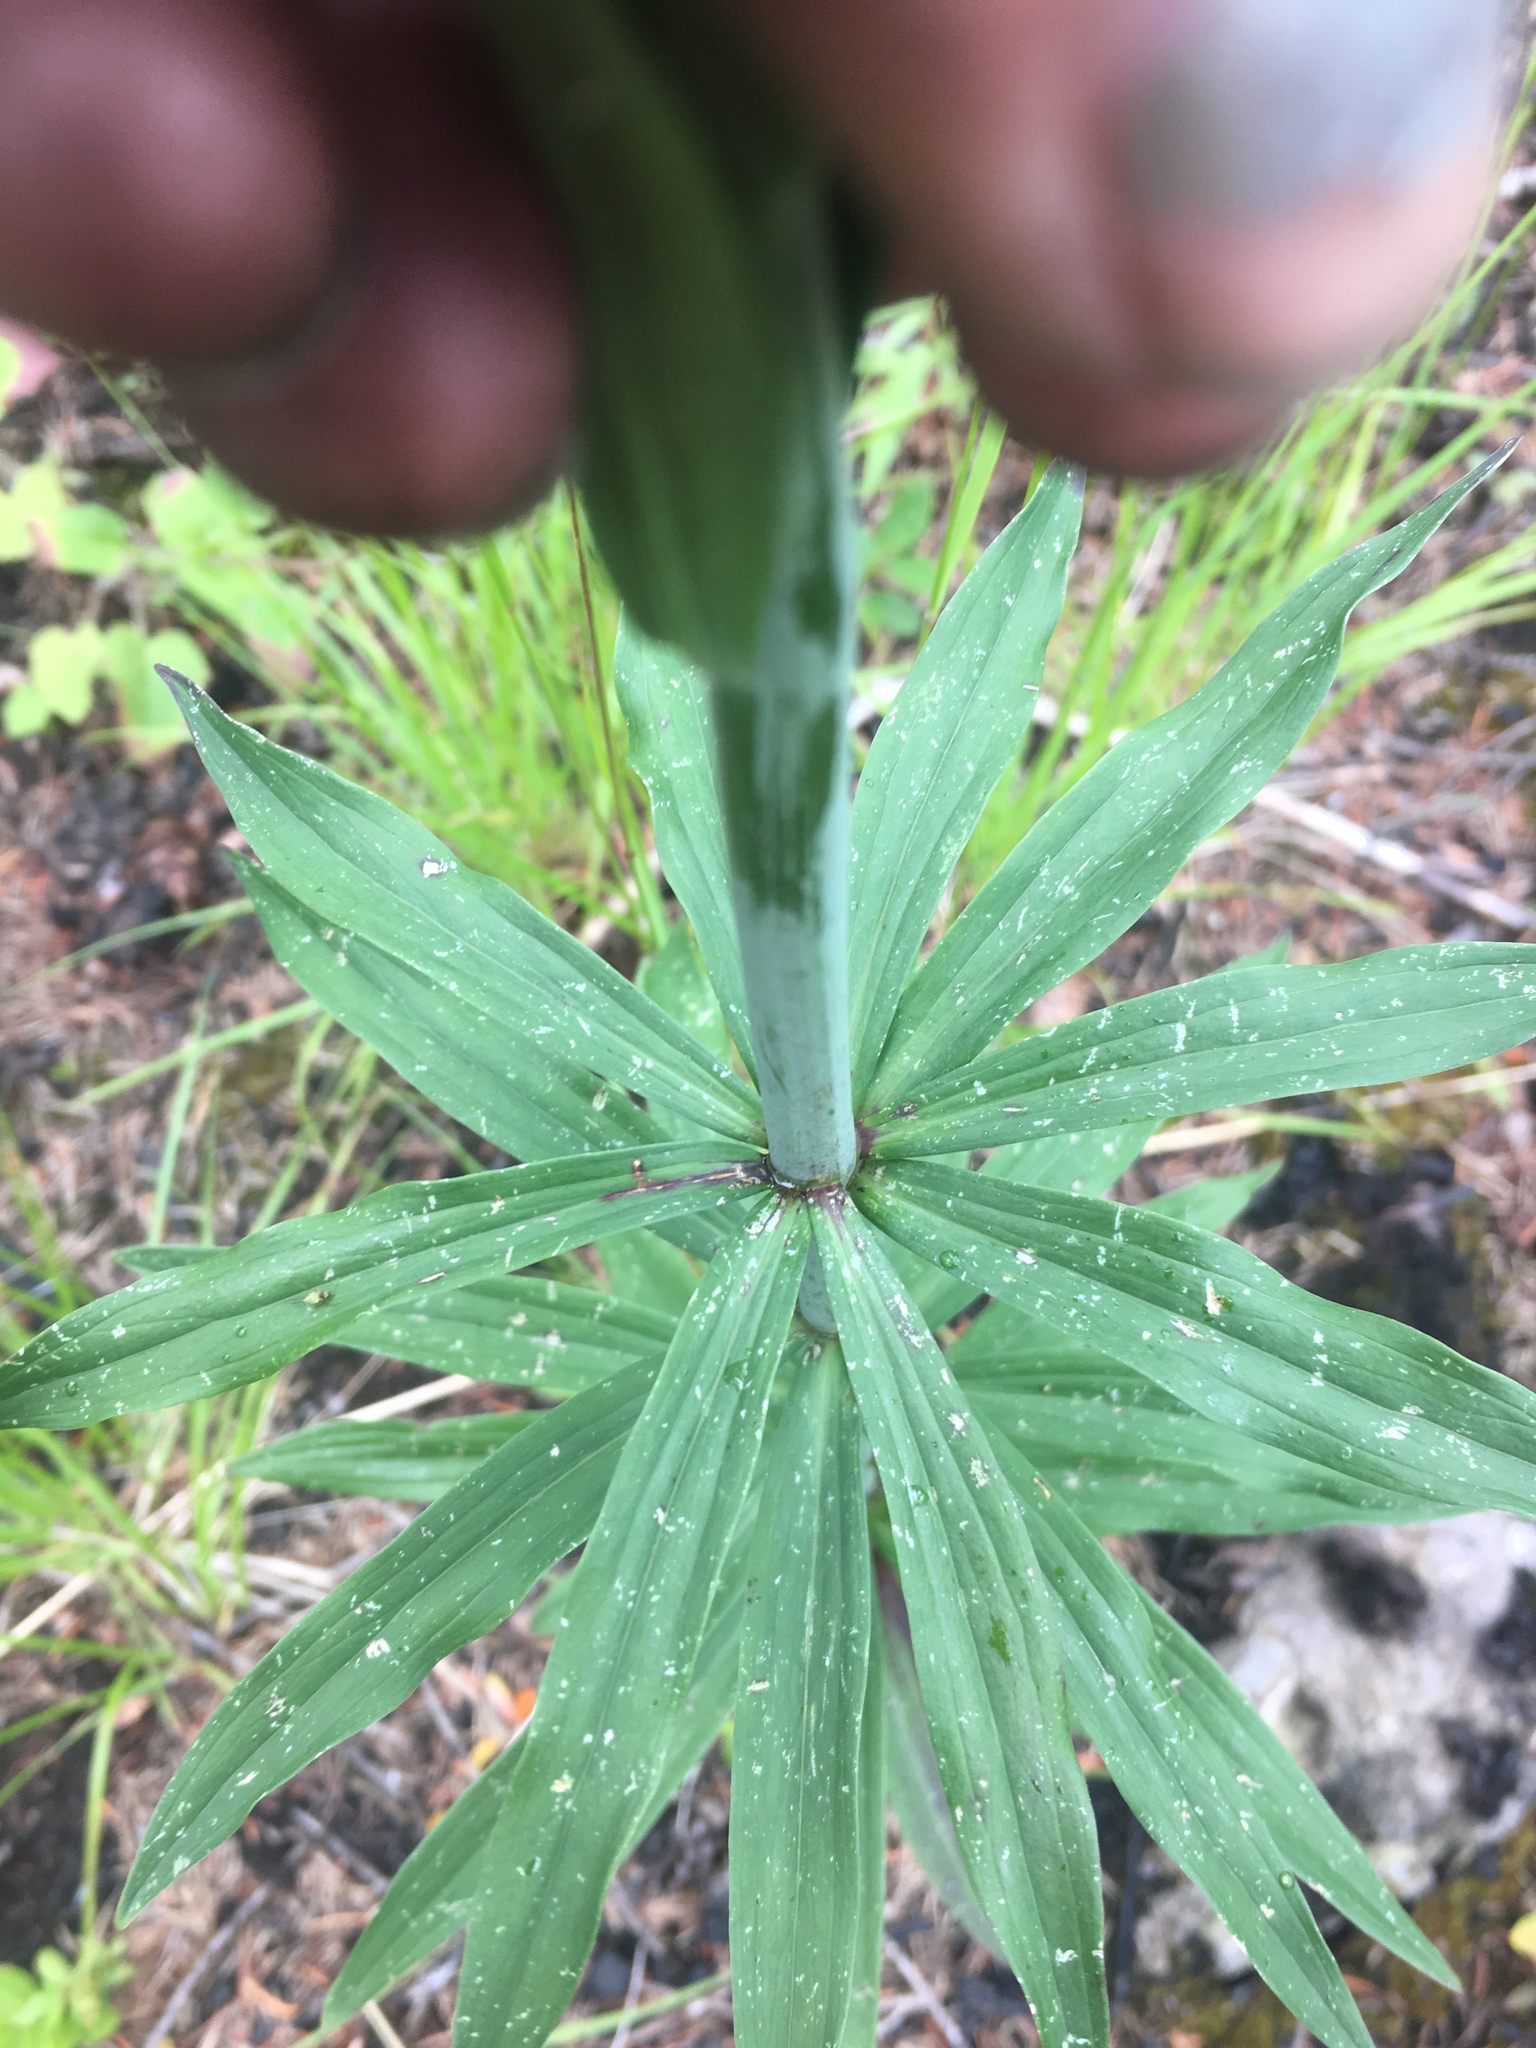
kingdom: Plantae
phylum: Tracheophyta
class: Liliopsida
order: Liliales
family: Liliaceae
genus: Lilium
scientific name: Lilium columbianum
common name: Columbia lily
